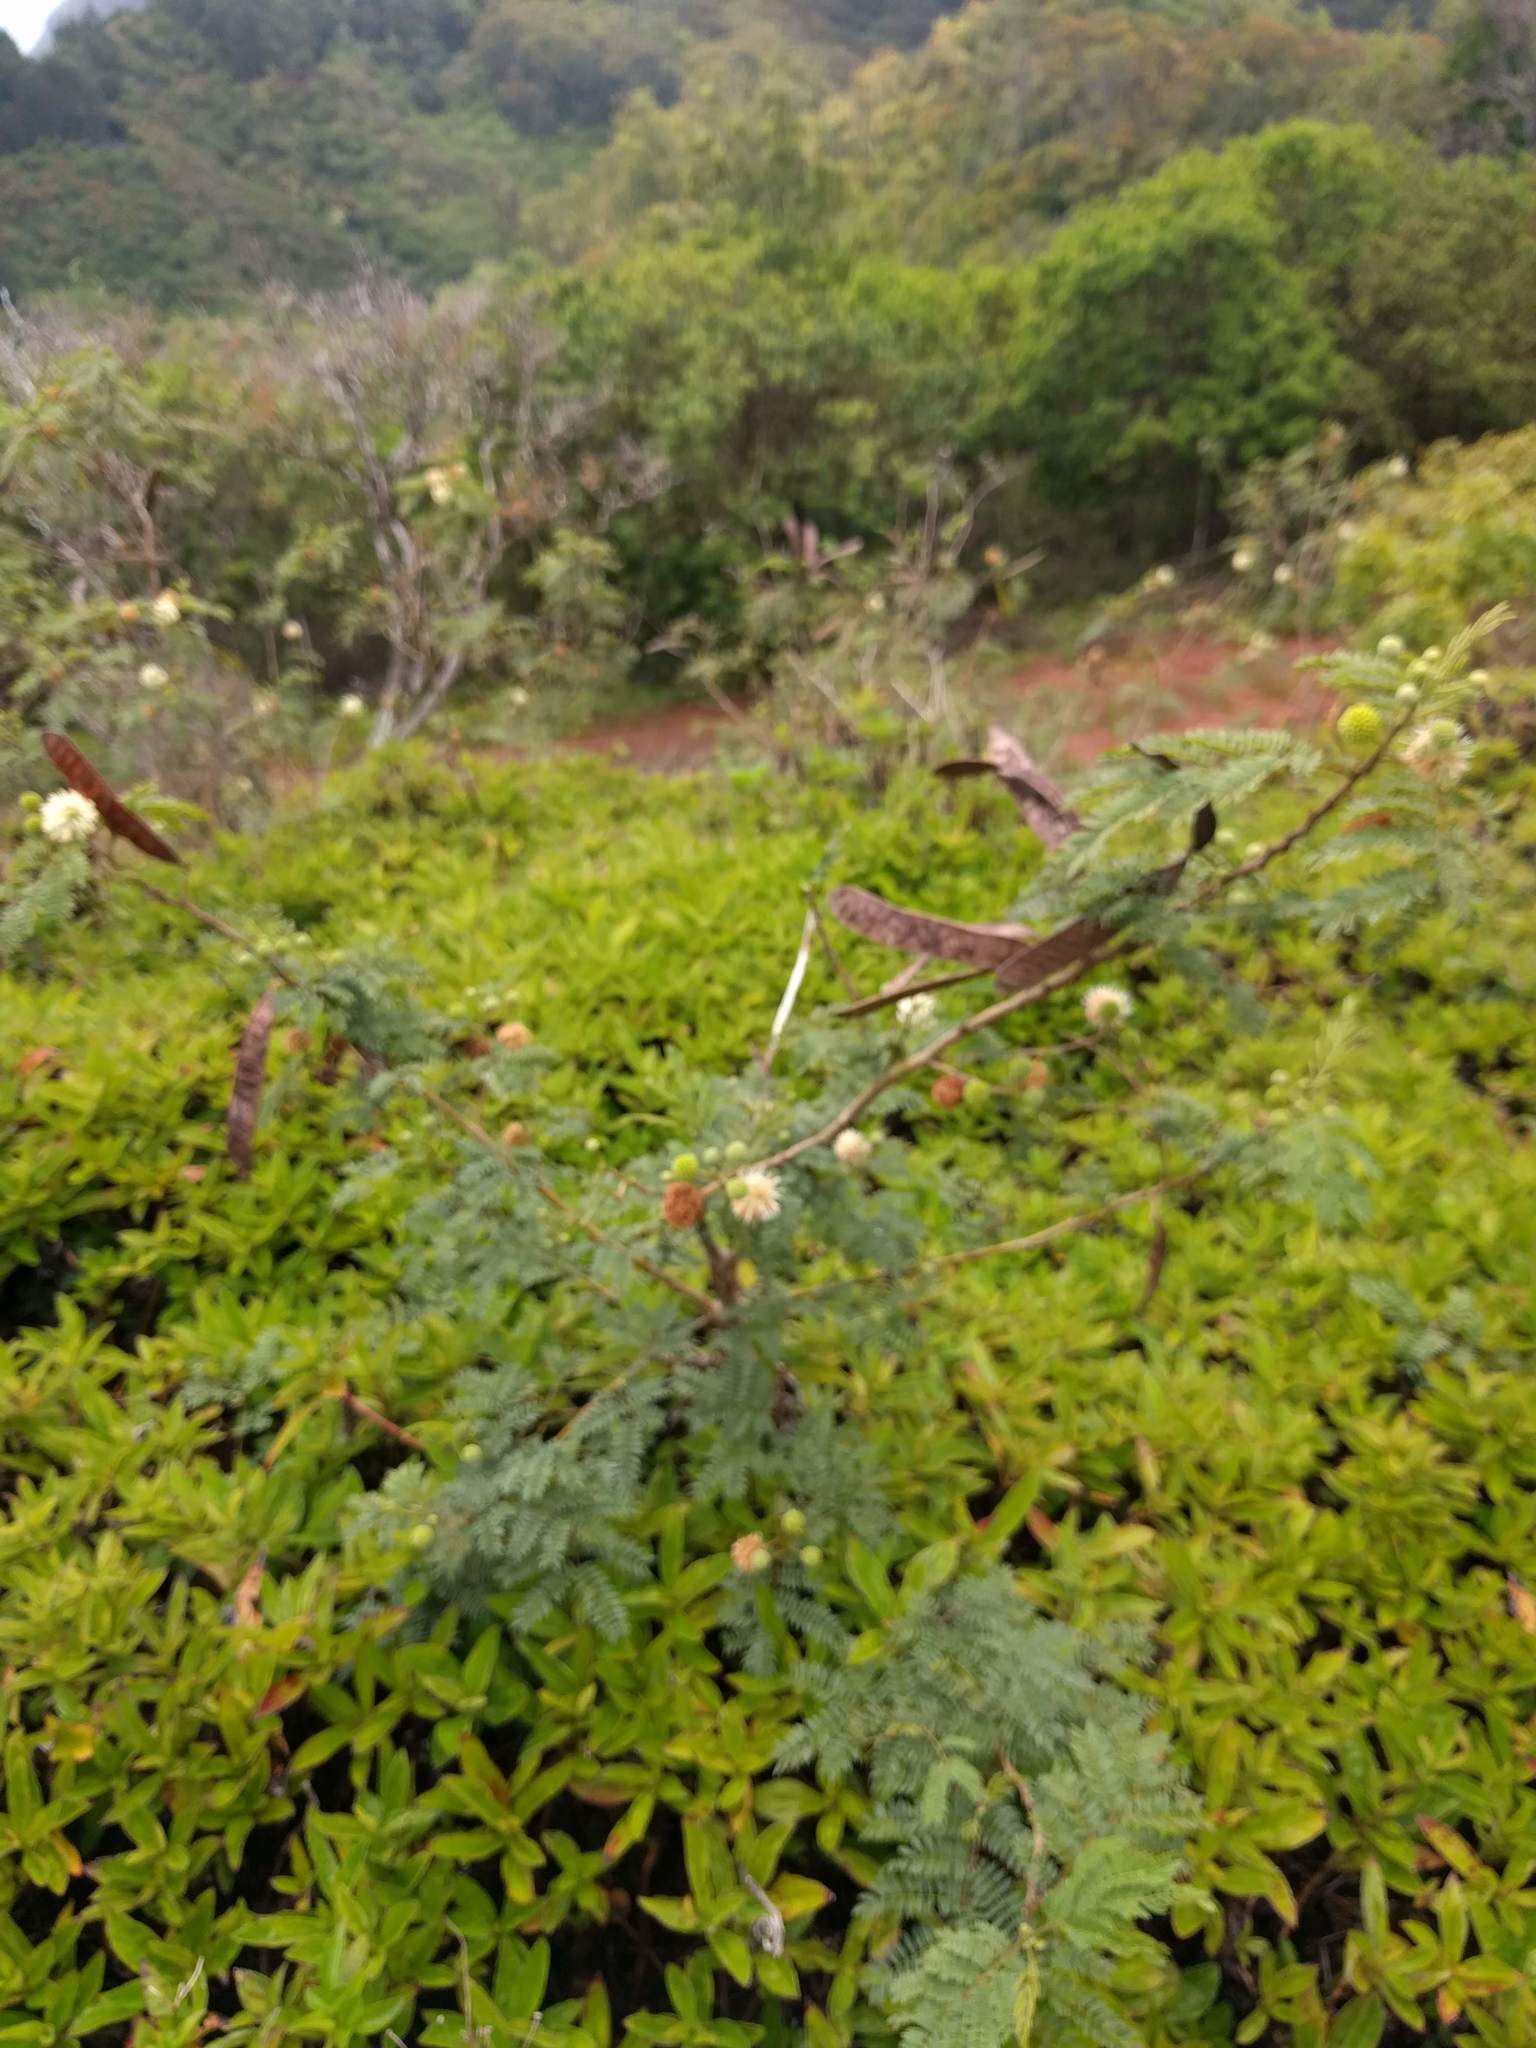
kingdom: Plantae
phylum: Tracheophyta
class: Magnoliopsida
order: Fabales
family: Fabaceae
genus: Leucaena
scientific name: Leucaena leucocephala
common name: White leadtree
